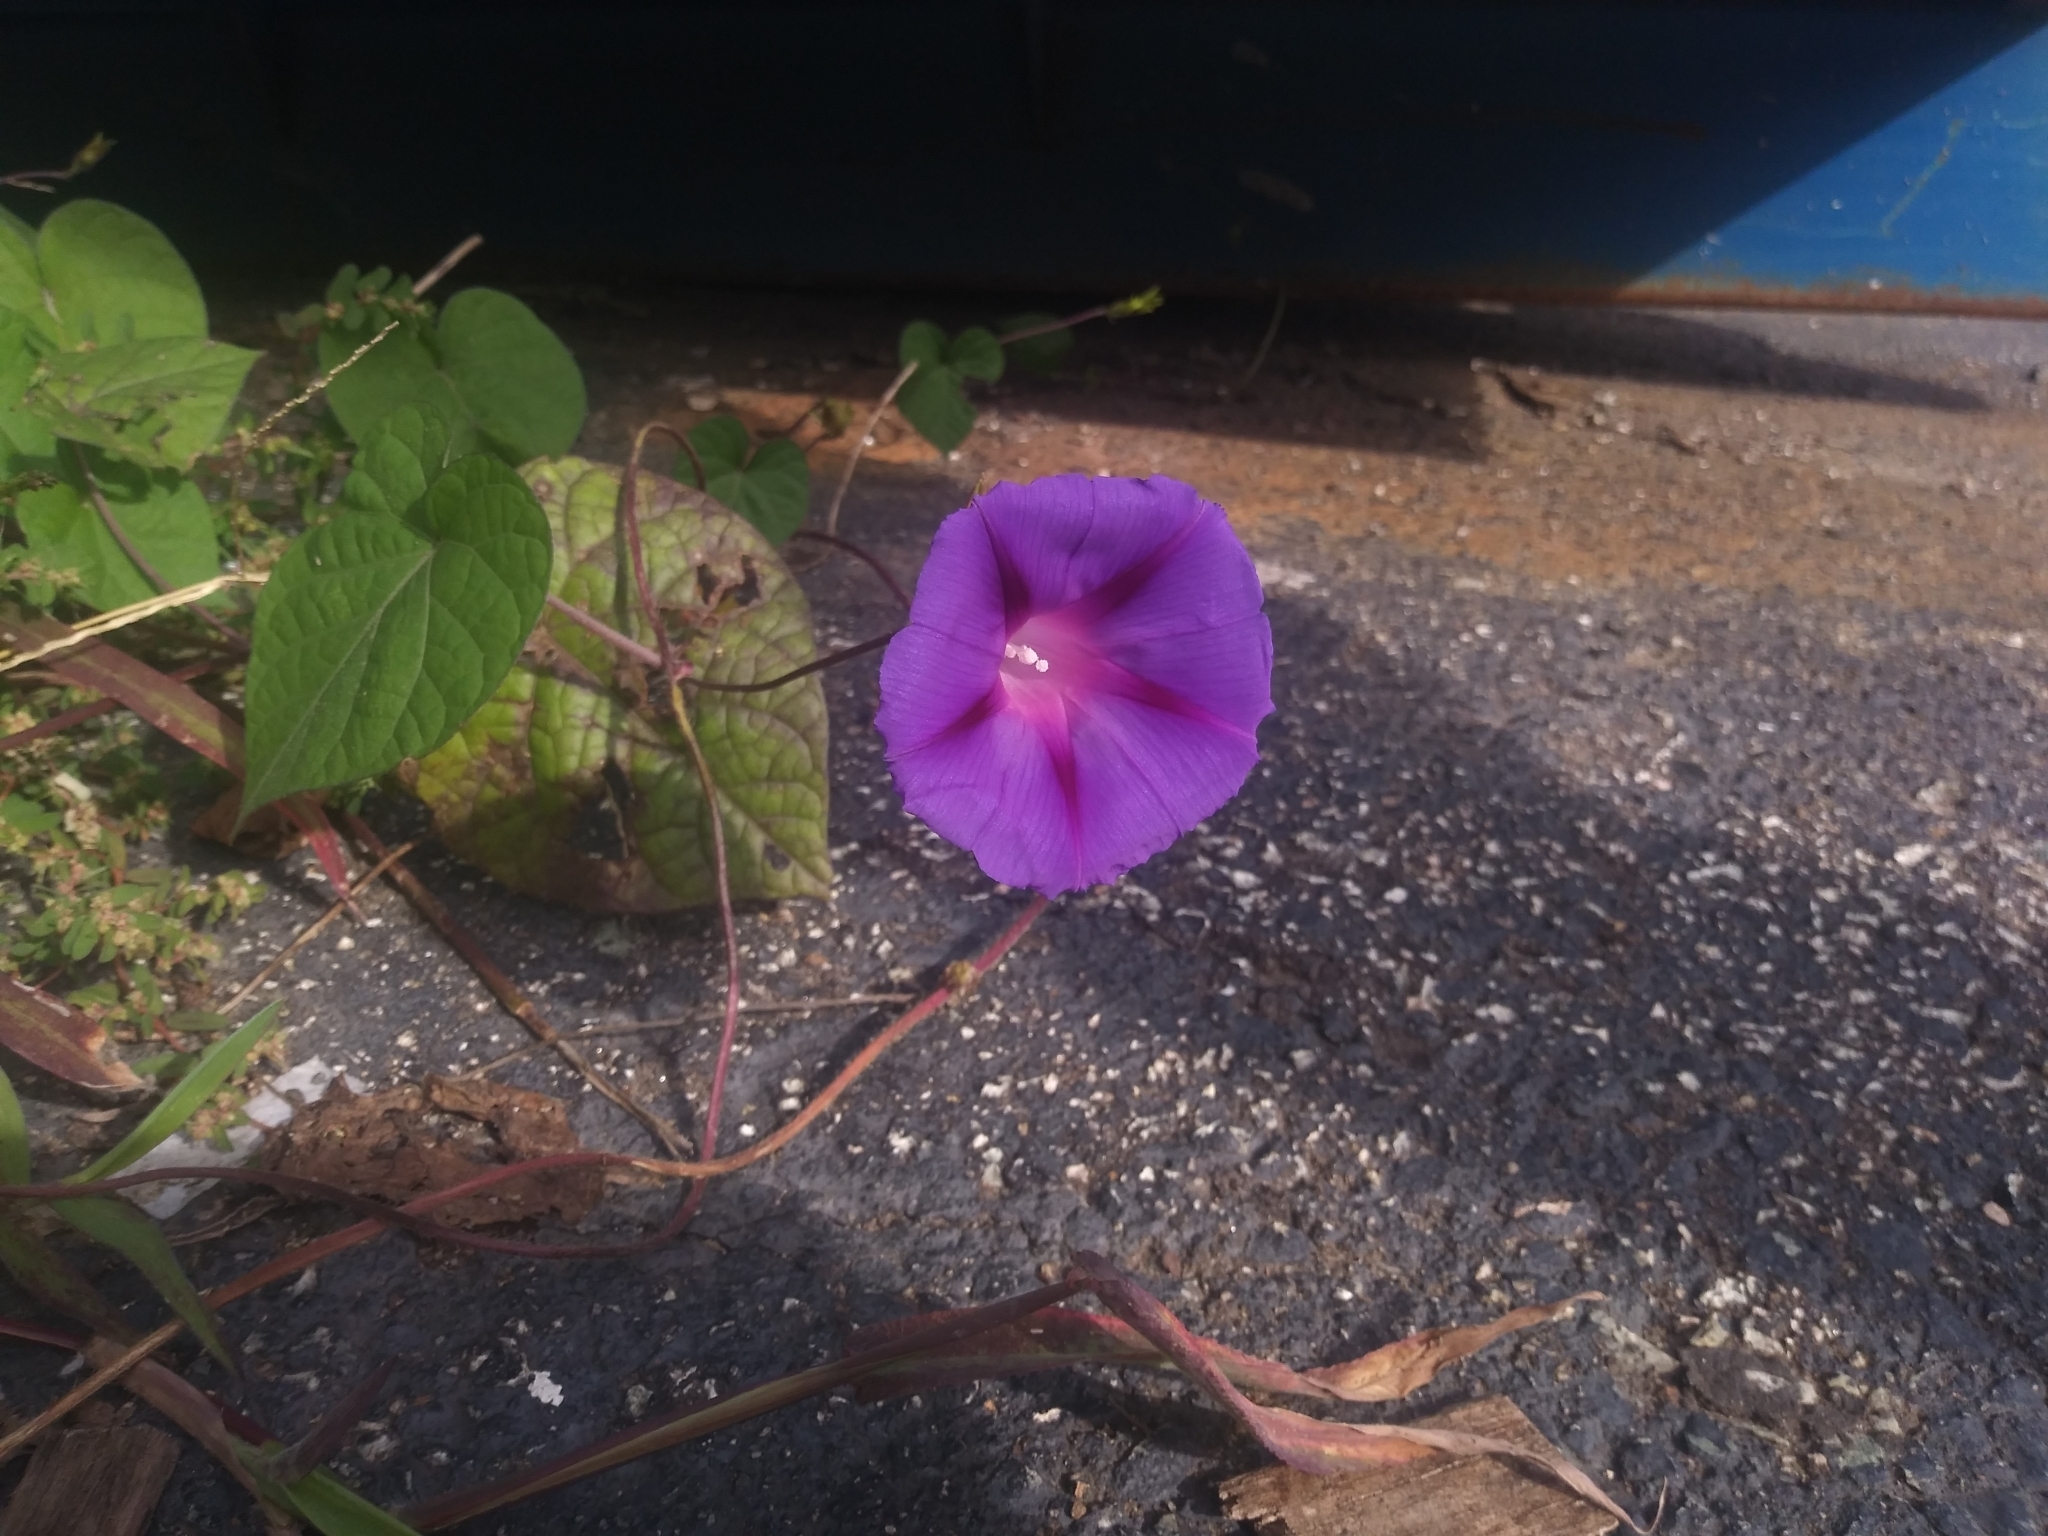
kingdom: Plantae
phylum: Tracheophyta
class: Magnoliopsida
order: Solanales
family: Convolvulaceae
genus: Ipomoea
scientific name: Ipomoea purpurea
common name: Common morning-glory
